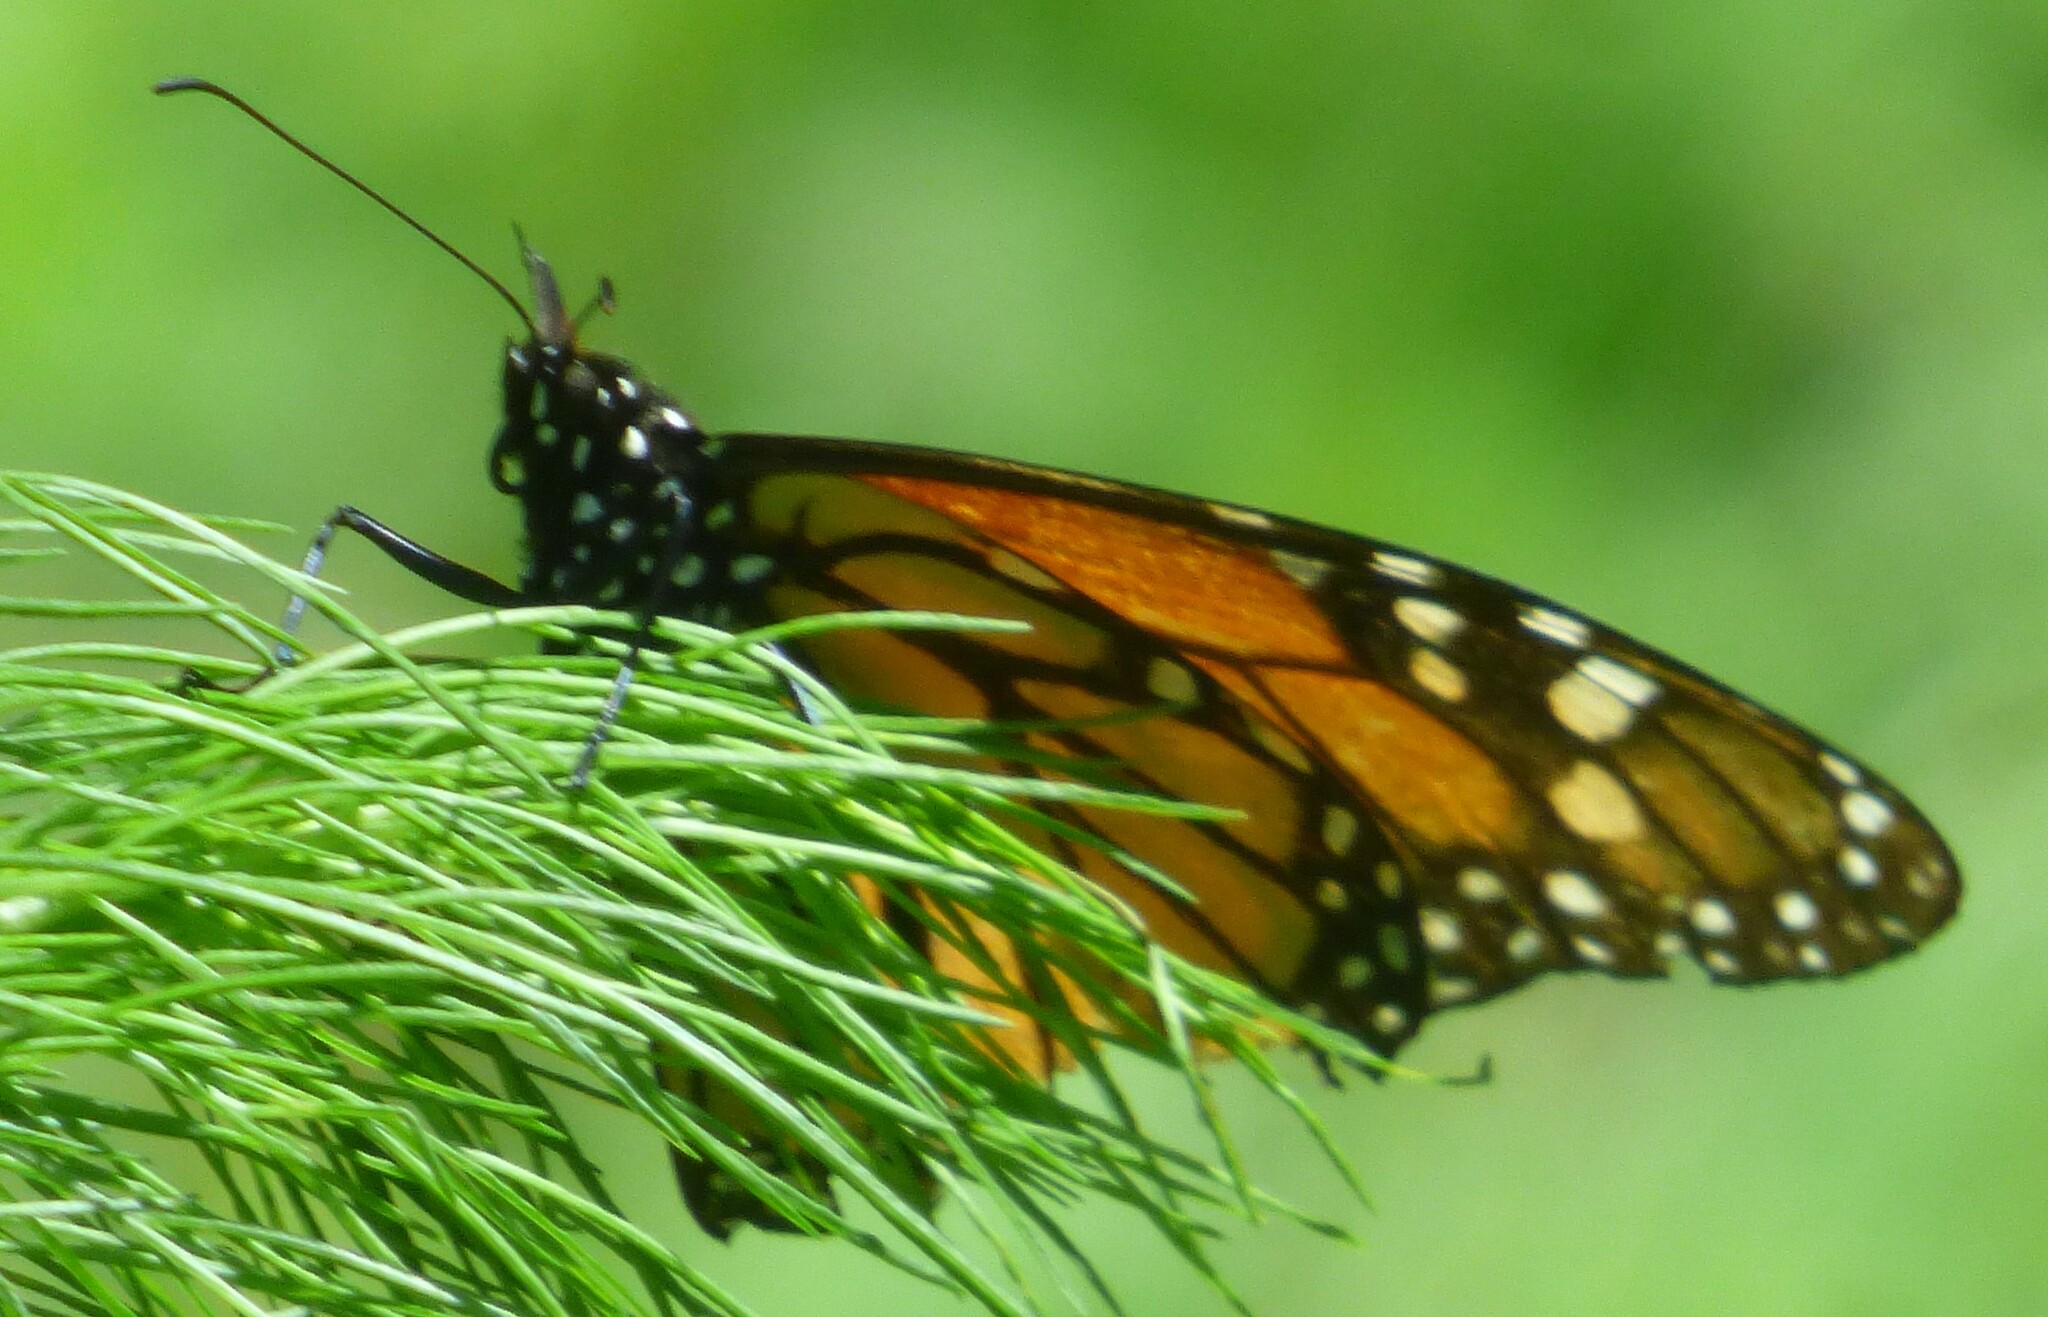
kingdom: Animalia
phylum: Arthropoda
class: Insecta
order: Lepidoptera
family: Nymphalidae
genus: Danaus
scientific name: Danaus plexippus
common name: Monarch
